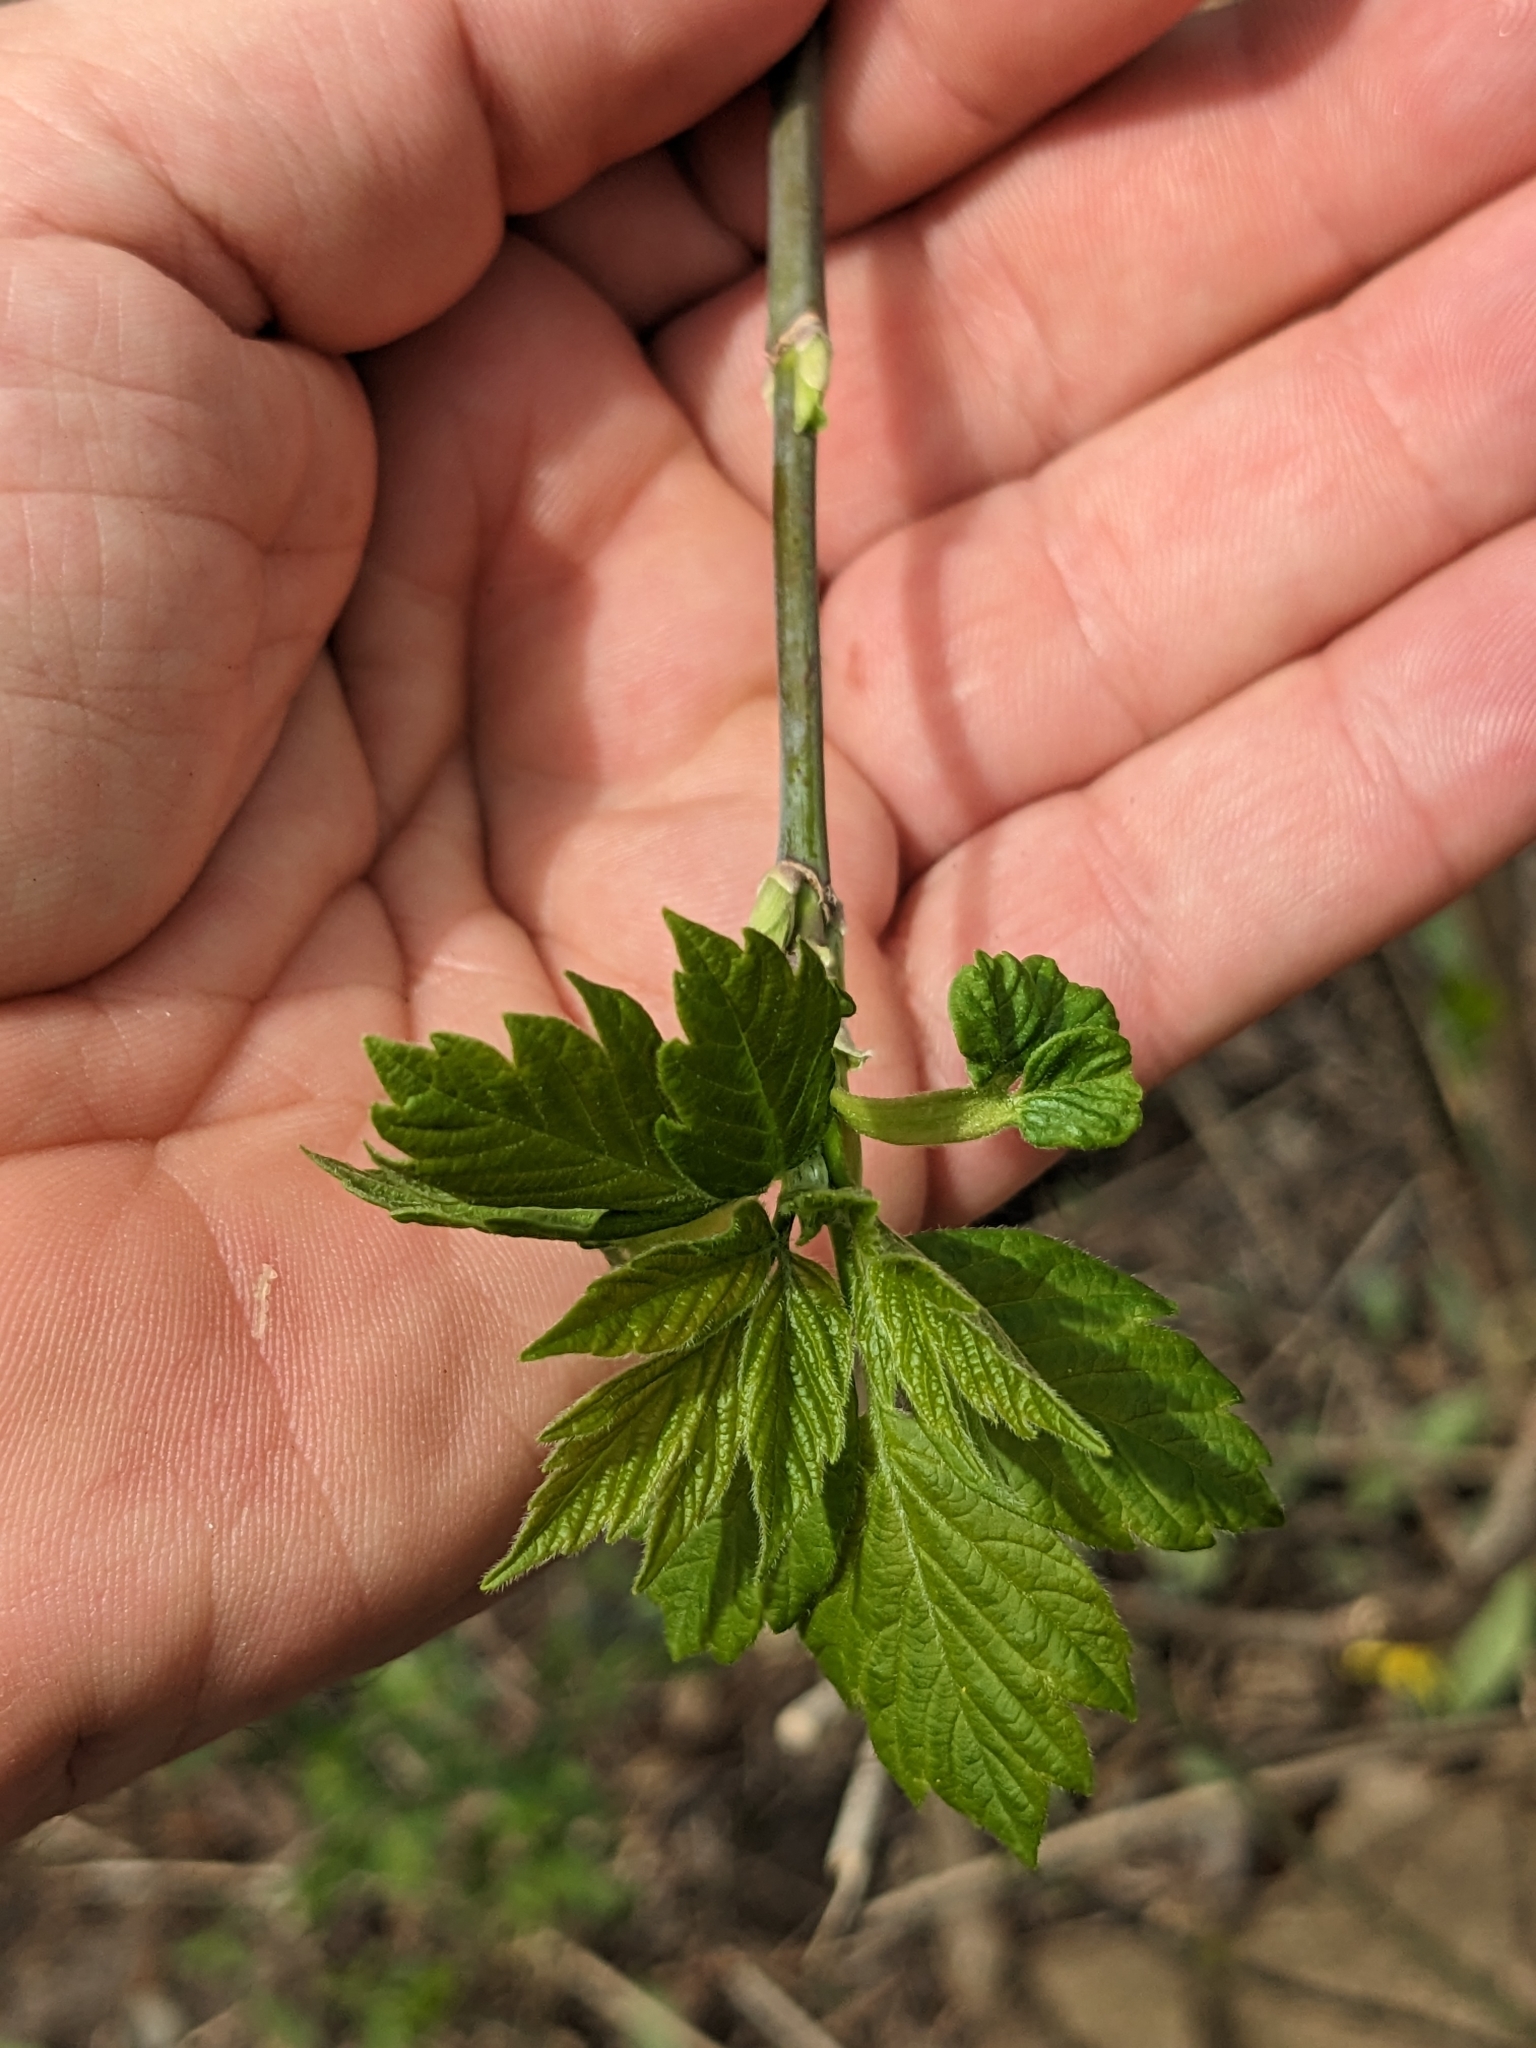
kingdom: Plantae
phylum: Tracheophyta
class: Magnoliopsida
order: Sapindales
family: Sapindaceae
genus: Acer
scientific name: Acer negundo
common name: Ashleaf maple
